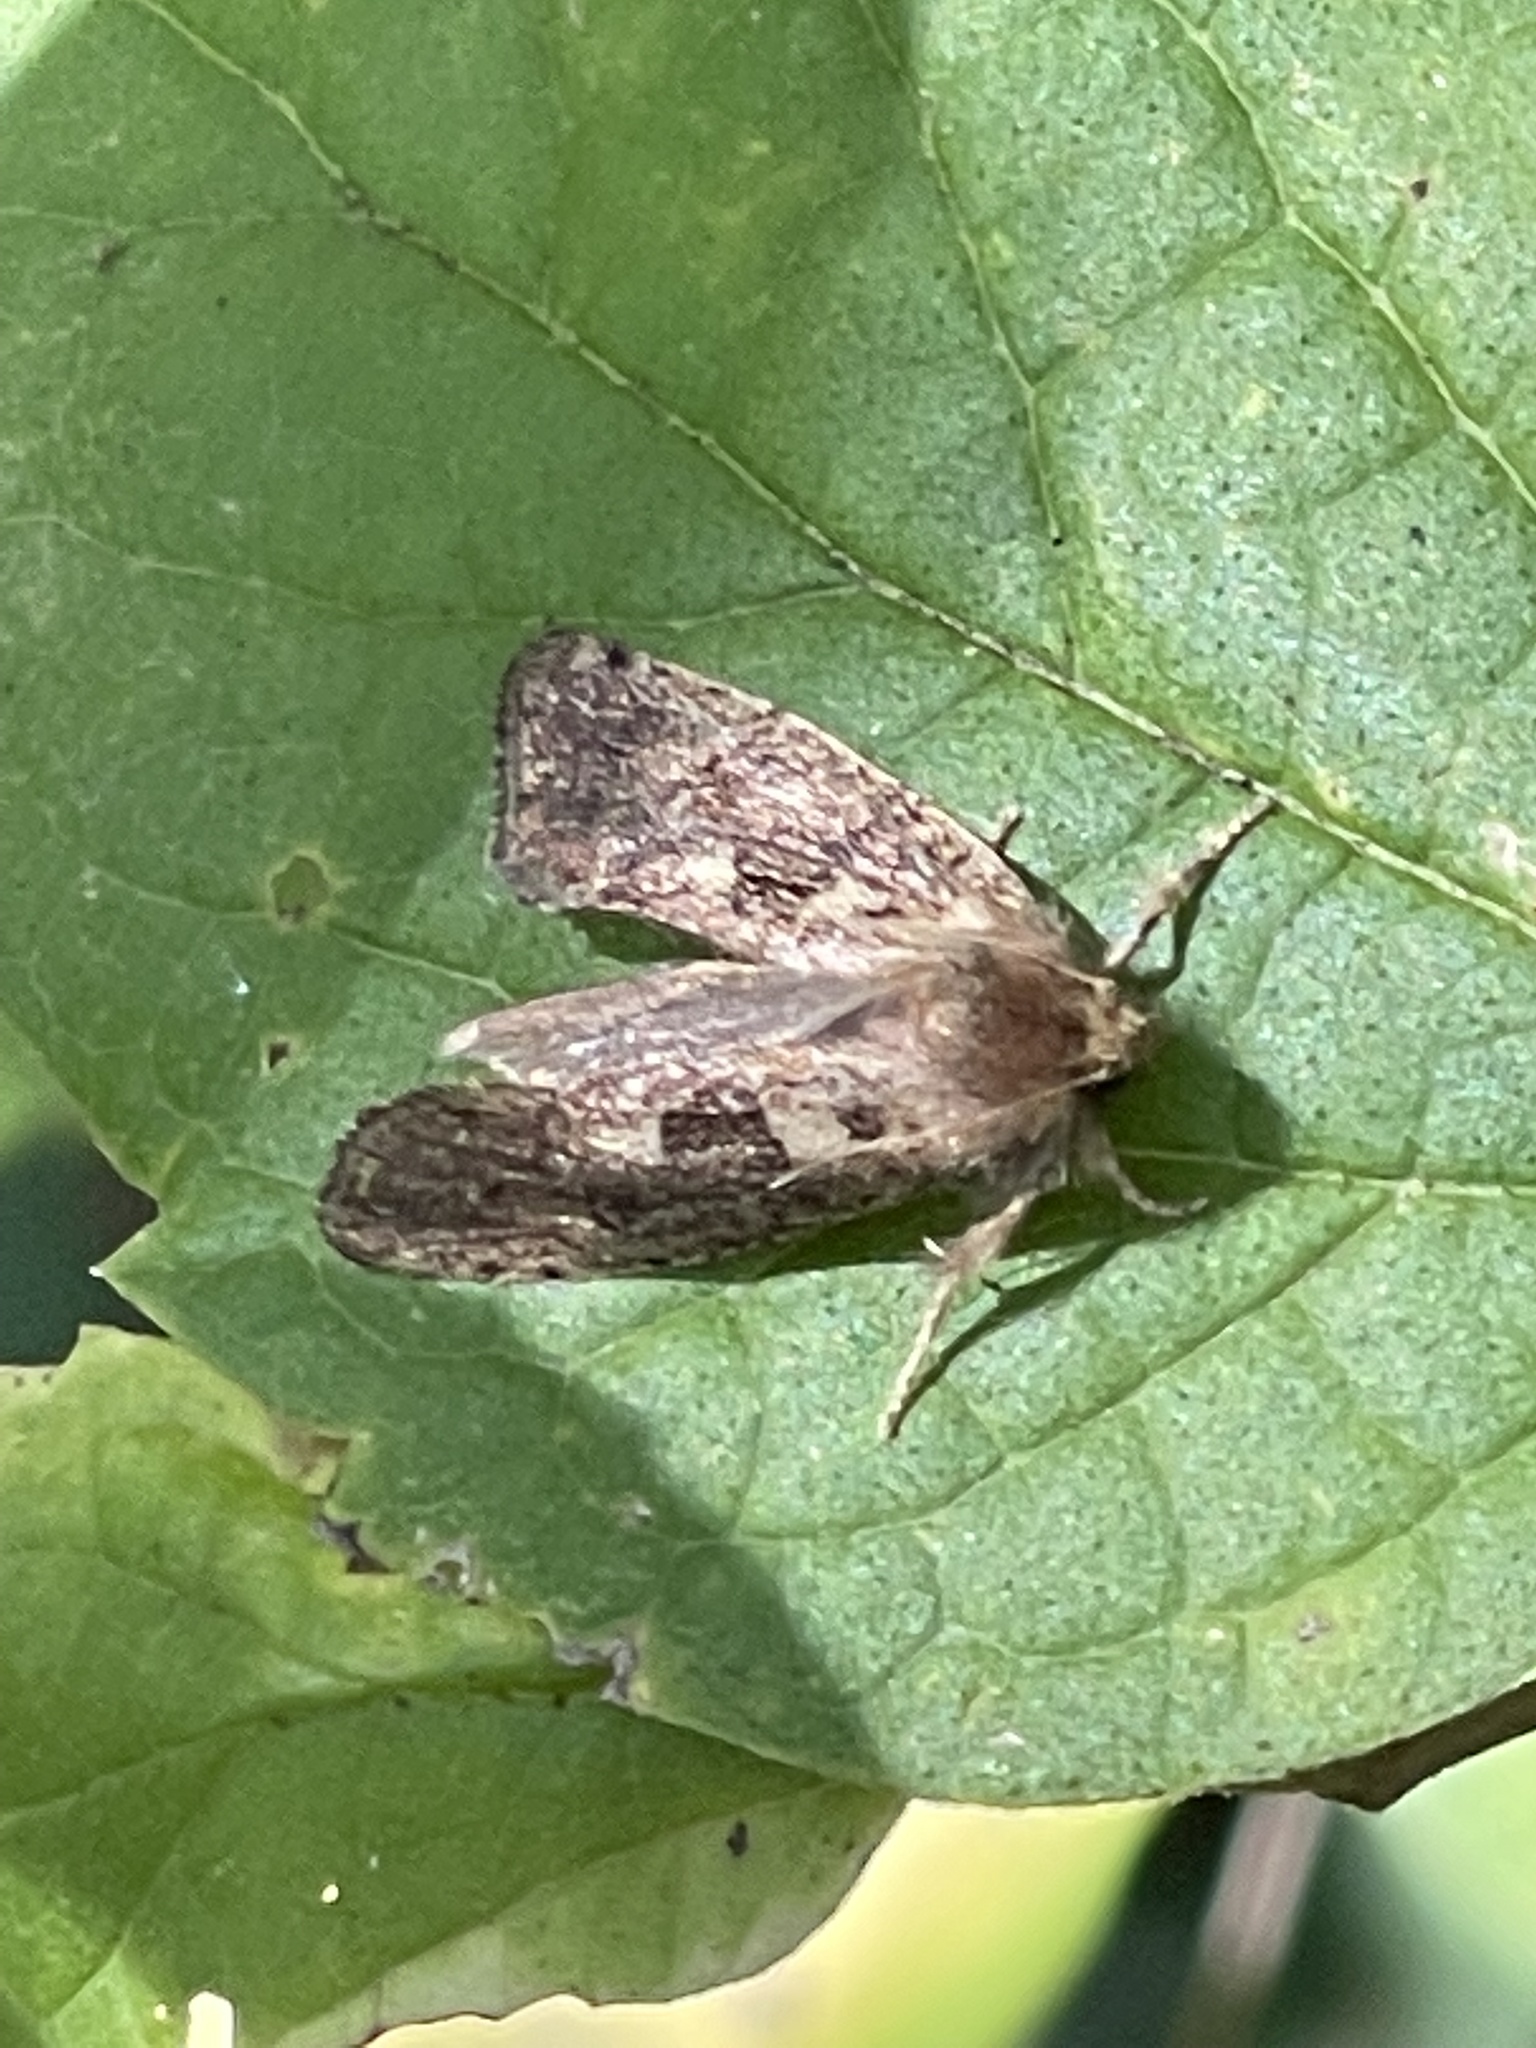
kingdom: Animalia
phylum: Arthropoda
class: Insecta
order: Lepidoptera
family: Tineidae
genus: Acrolophus
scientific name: Acrolophus mora
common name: Dark acrolophus
